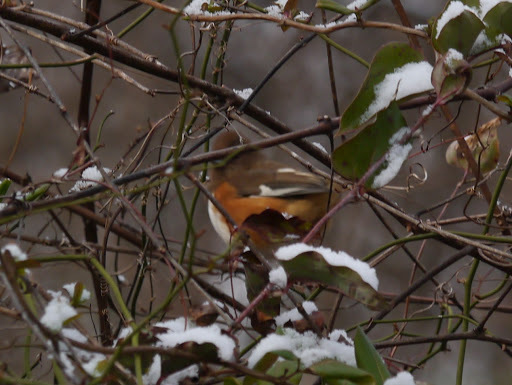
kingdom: Animalia
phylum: Chordata
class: Aves
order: Passeriformes
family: Passerellidae
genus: Pipilo
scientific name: Pipilo erythrophthalmus
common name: Eastern towhee
